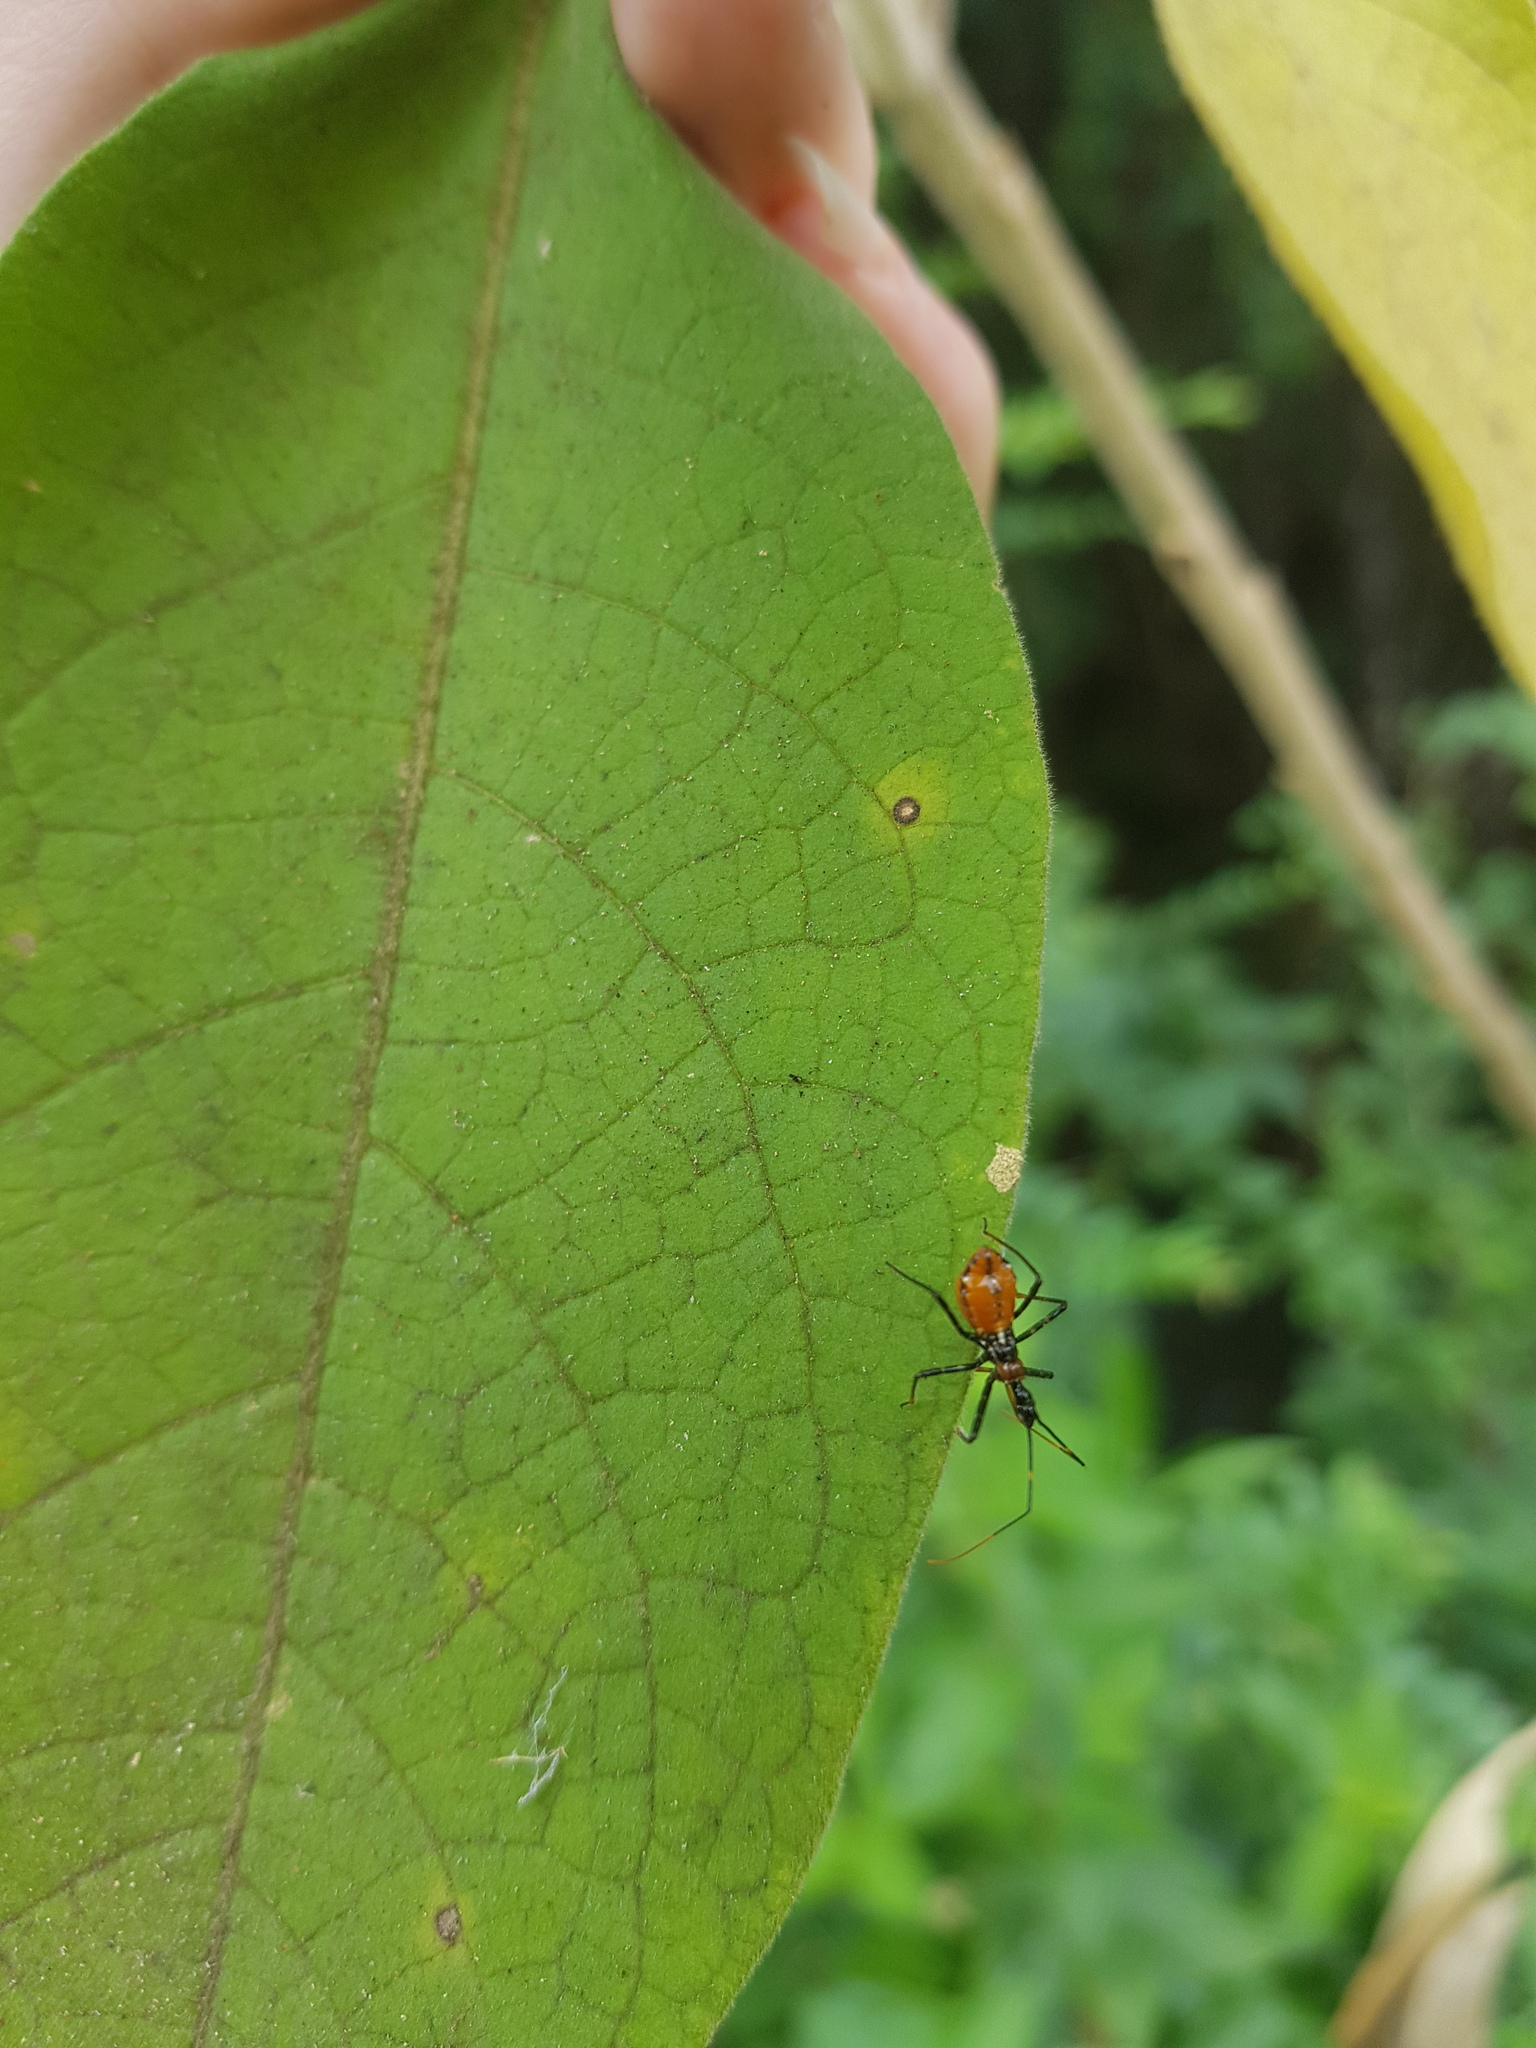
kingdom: Animalia
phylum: Arthropoda
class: Insecta
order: Hemiptera
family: Reduviidae
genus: Pristhesancus
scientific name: Pristhesancus plagipennis
